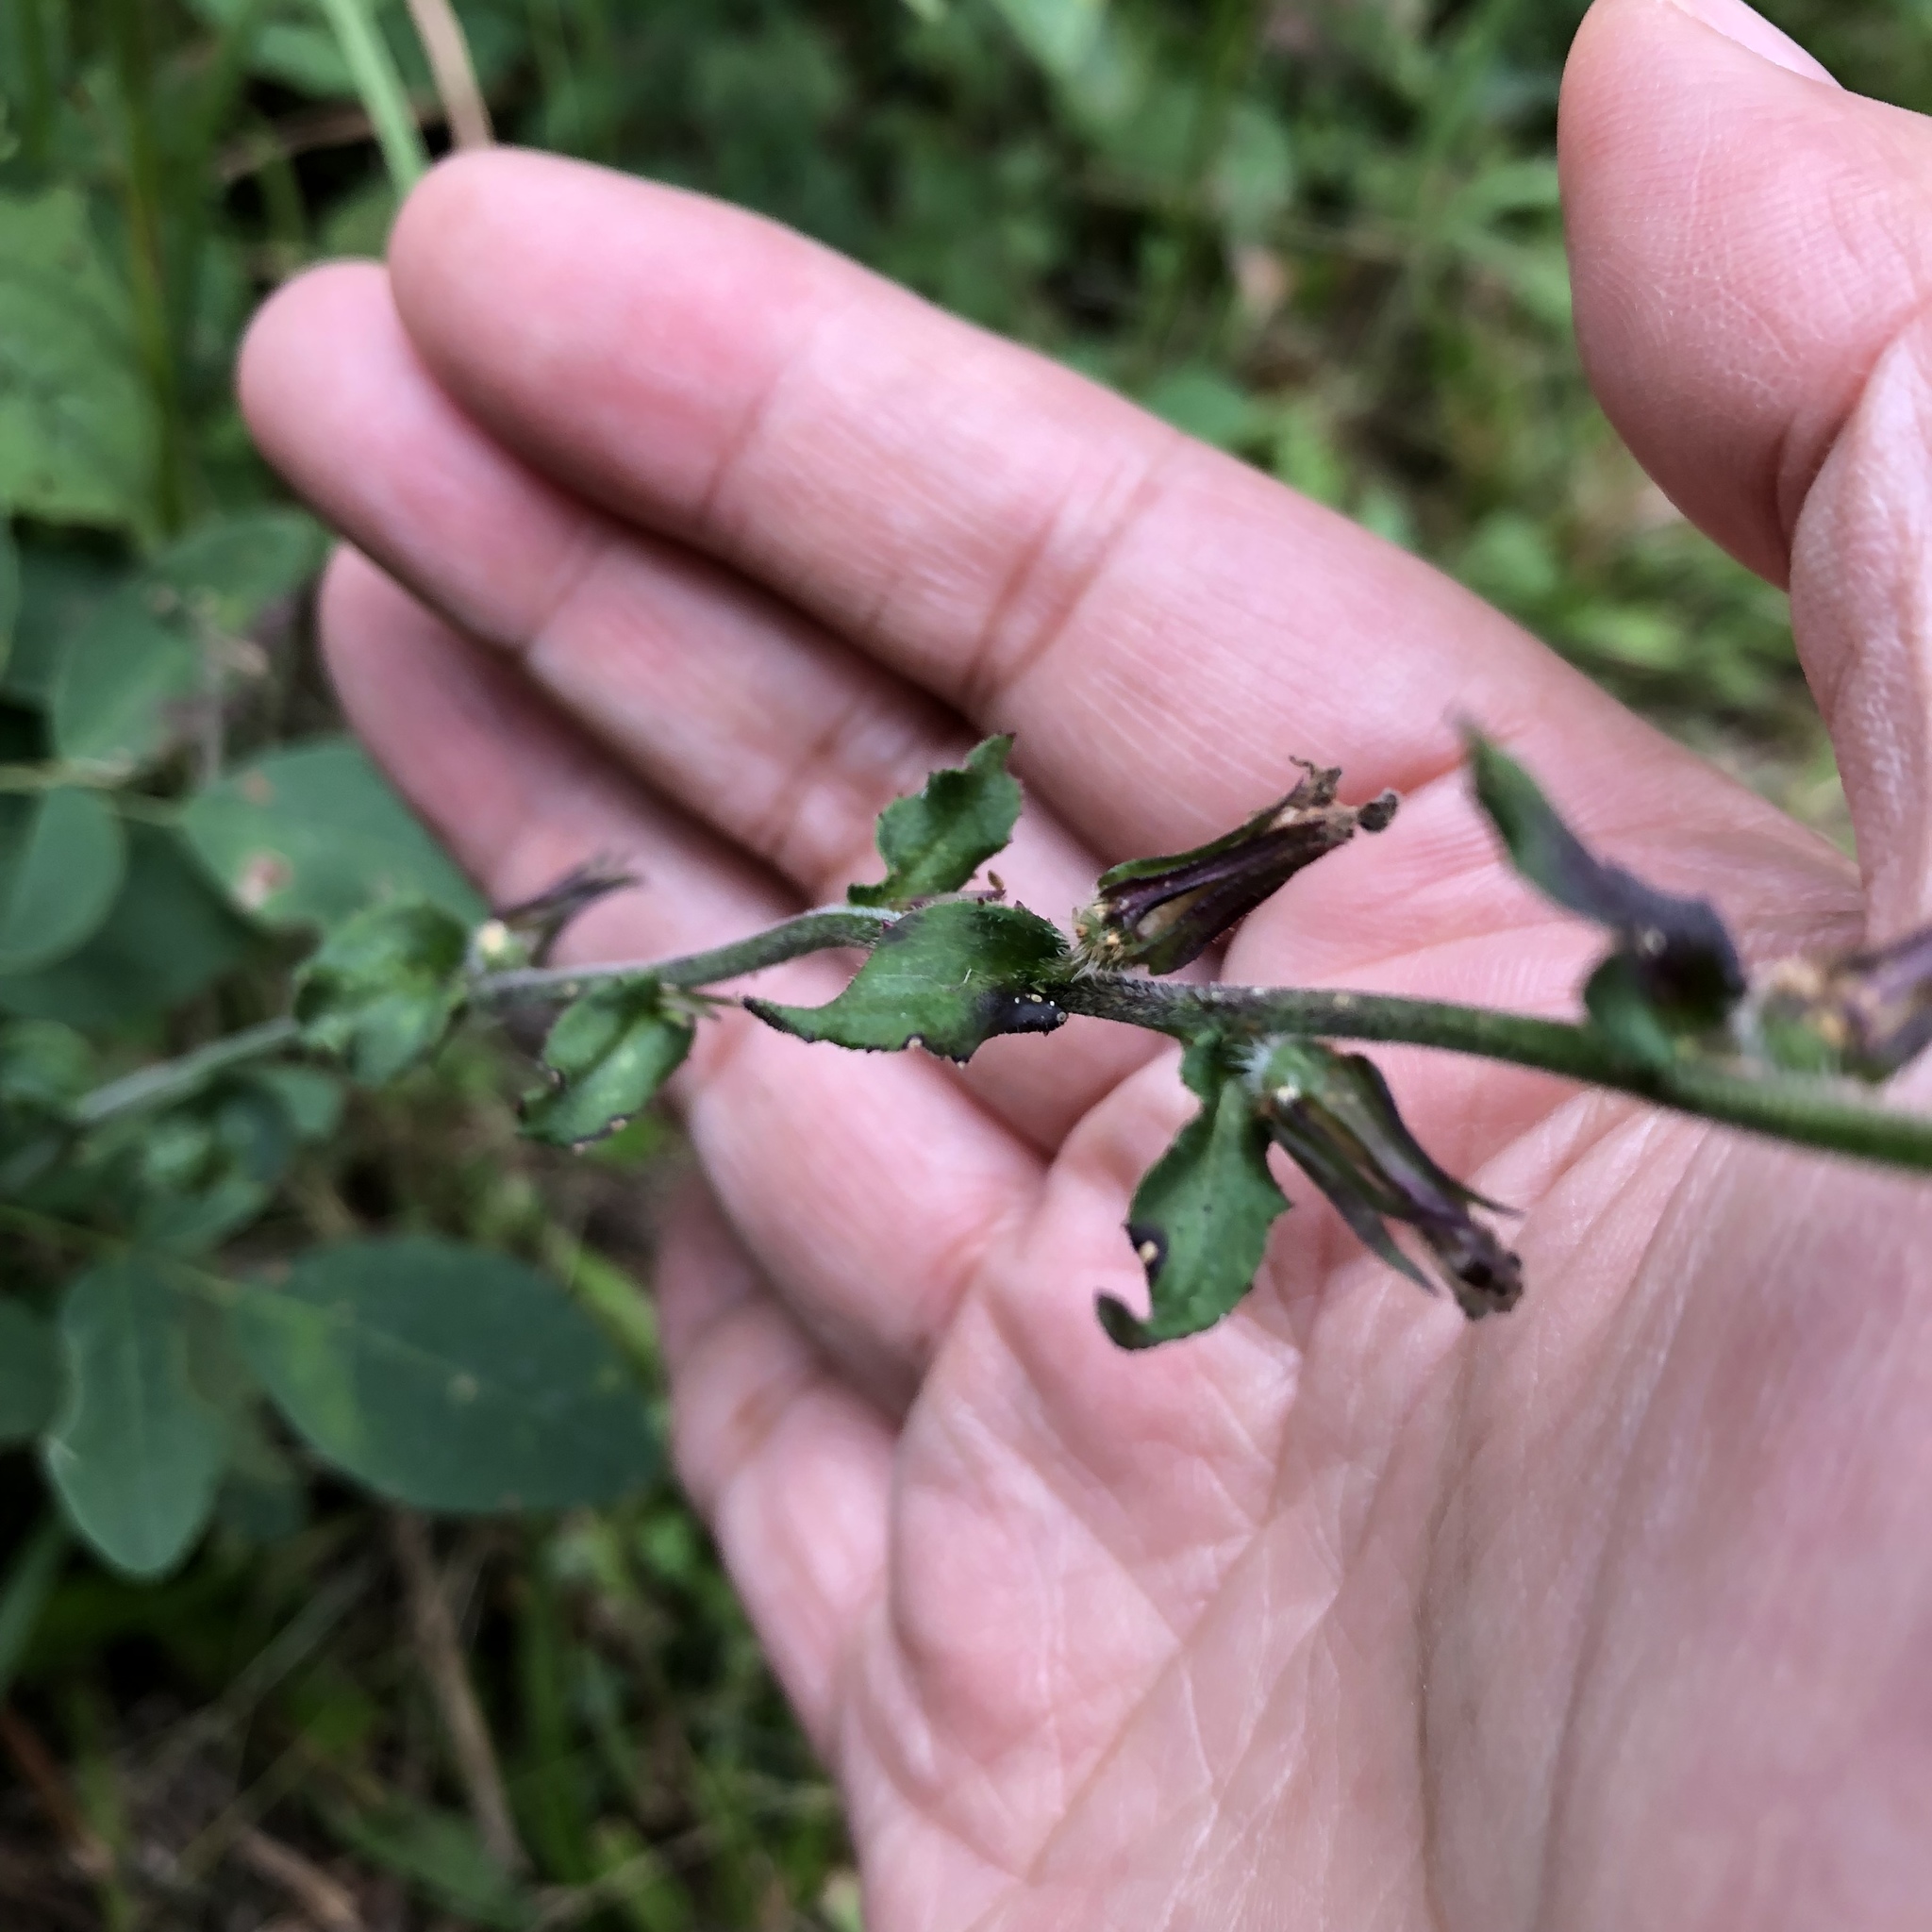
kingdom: Plantae
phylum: Tracheophyta
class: Magnoliopsida
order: Asterales
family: Campanulaceae
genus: Lobelia
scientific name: Lobelia puberula
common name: Purple dewdrop
